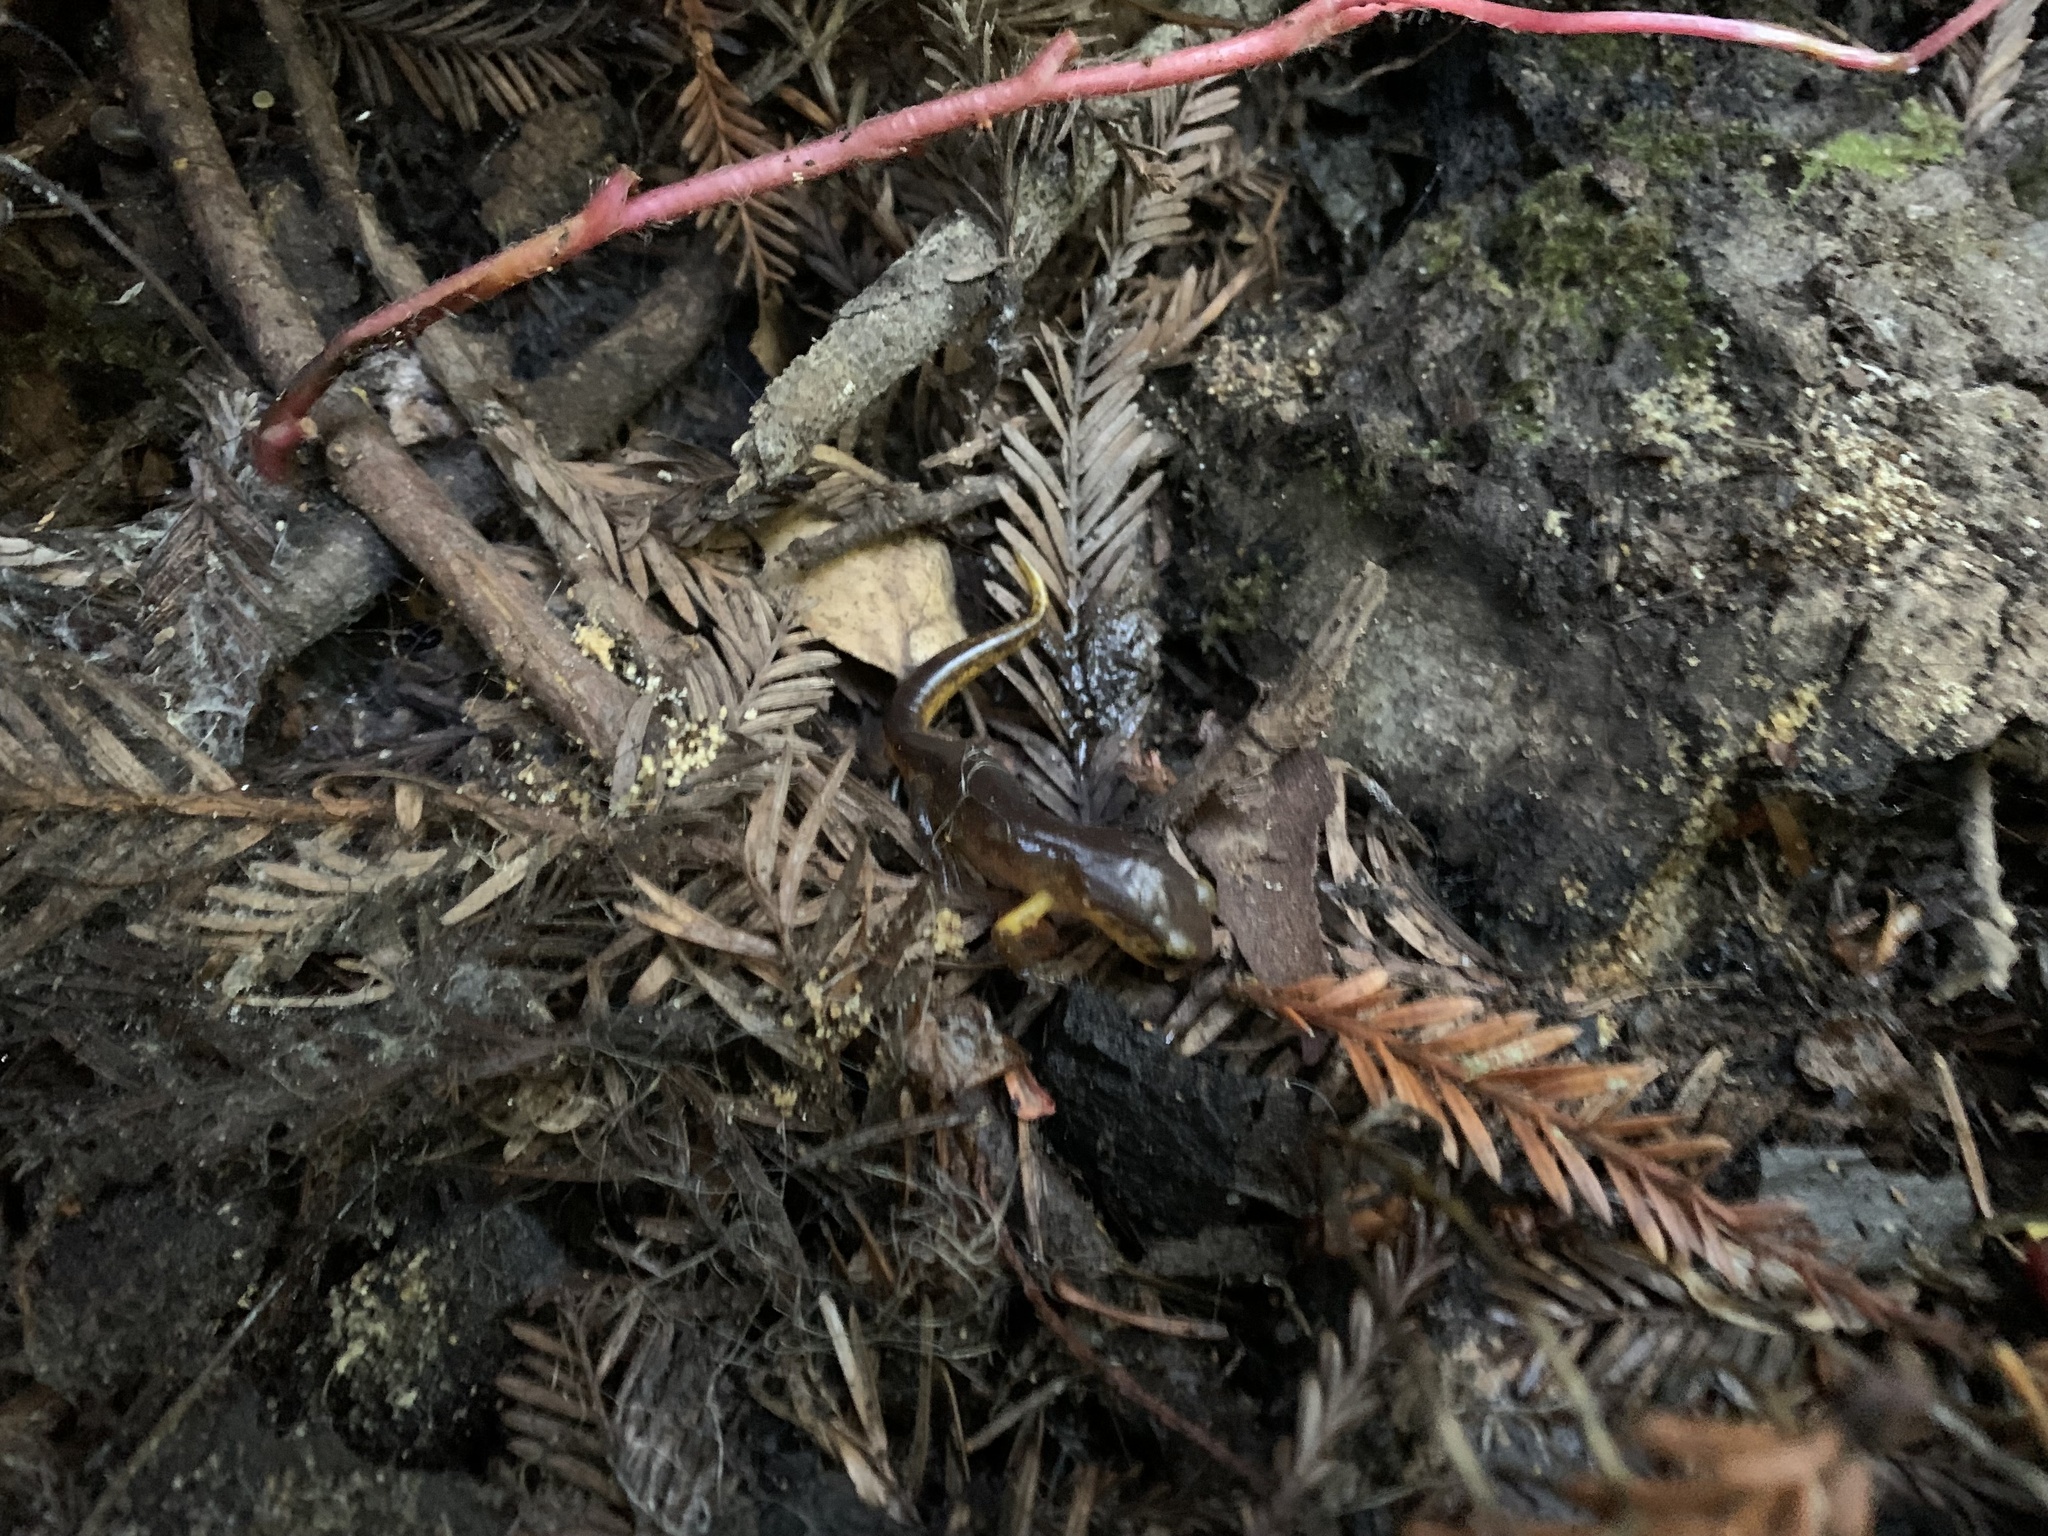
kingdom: Animalia
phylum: Chordata
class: Amphibia
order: Caudata
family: Plethodontidae
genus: Ensatina
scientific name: Ensatina eschscholtzii
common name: Ensatina
